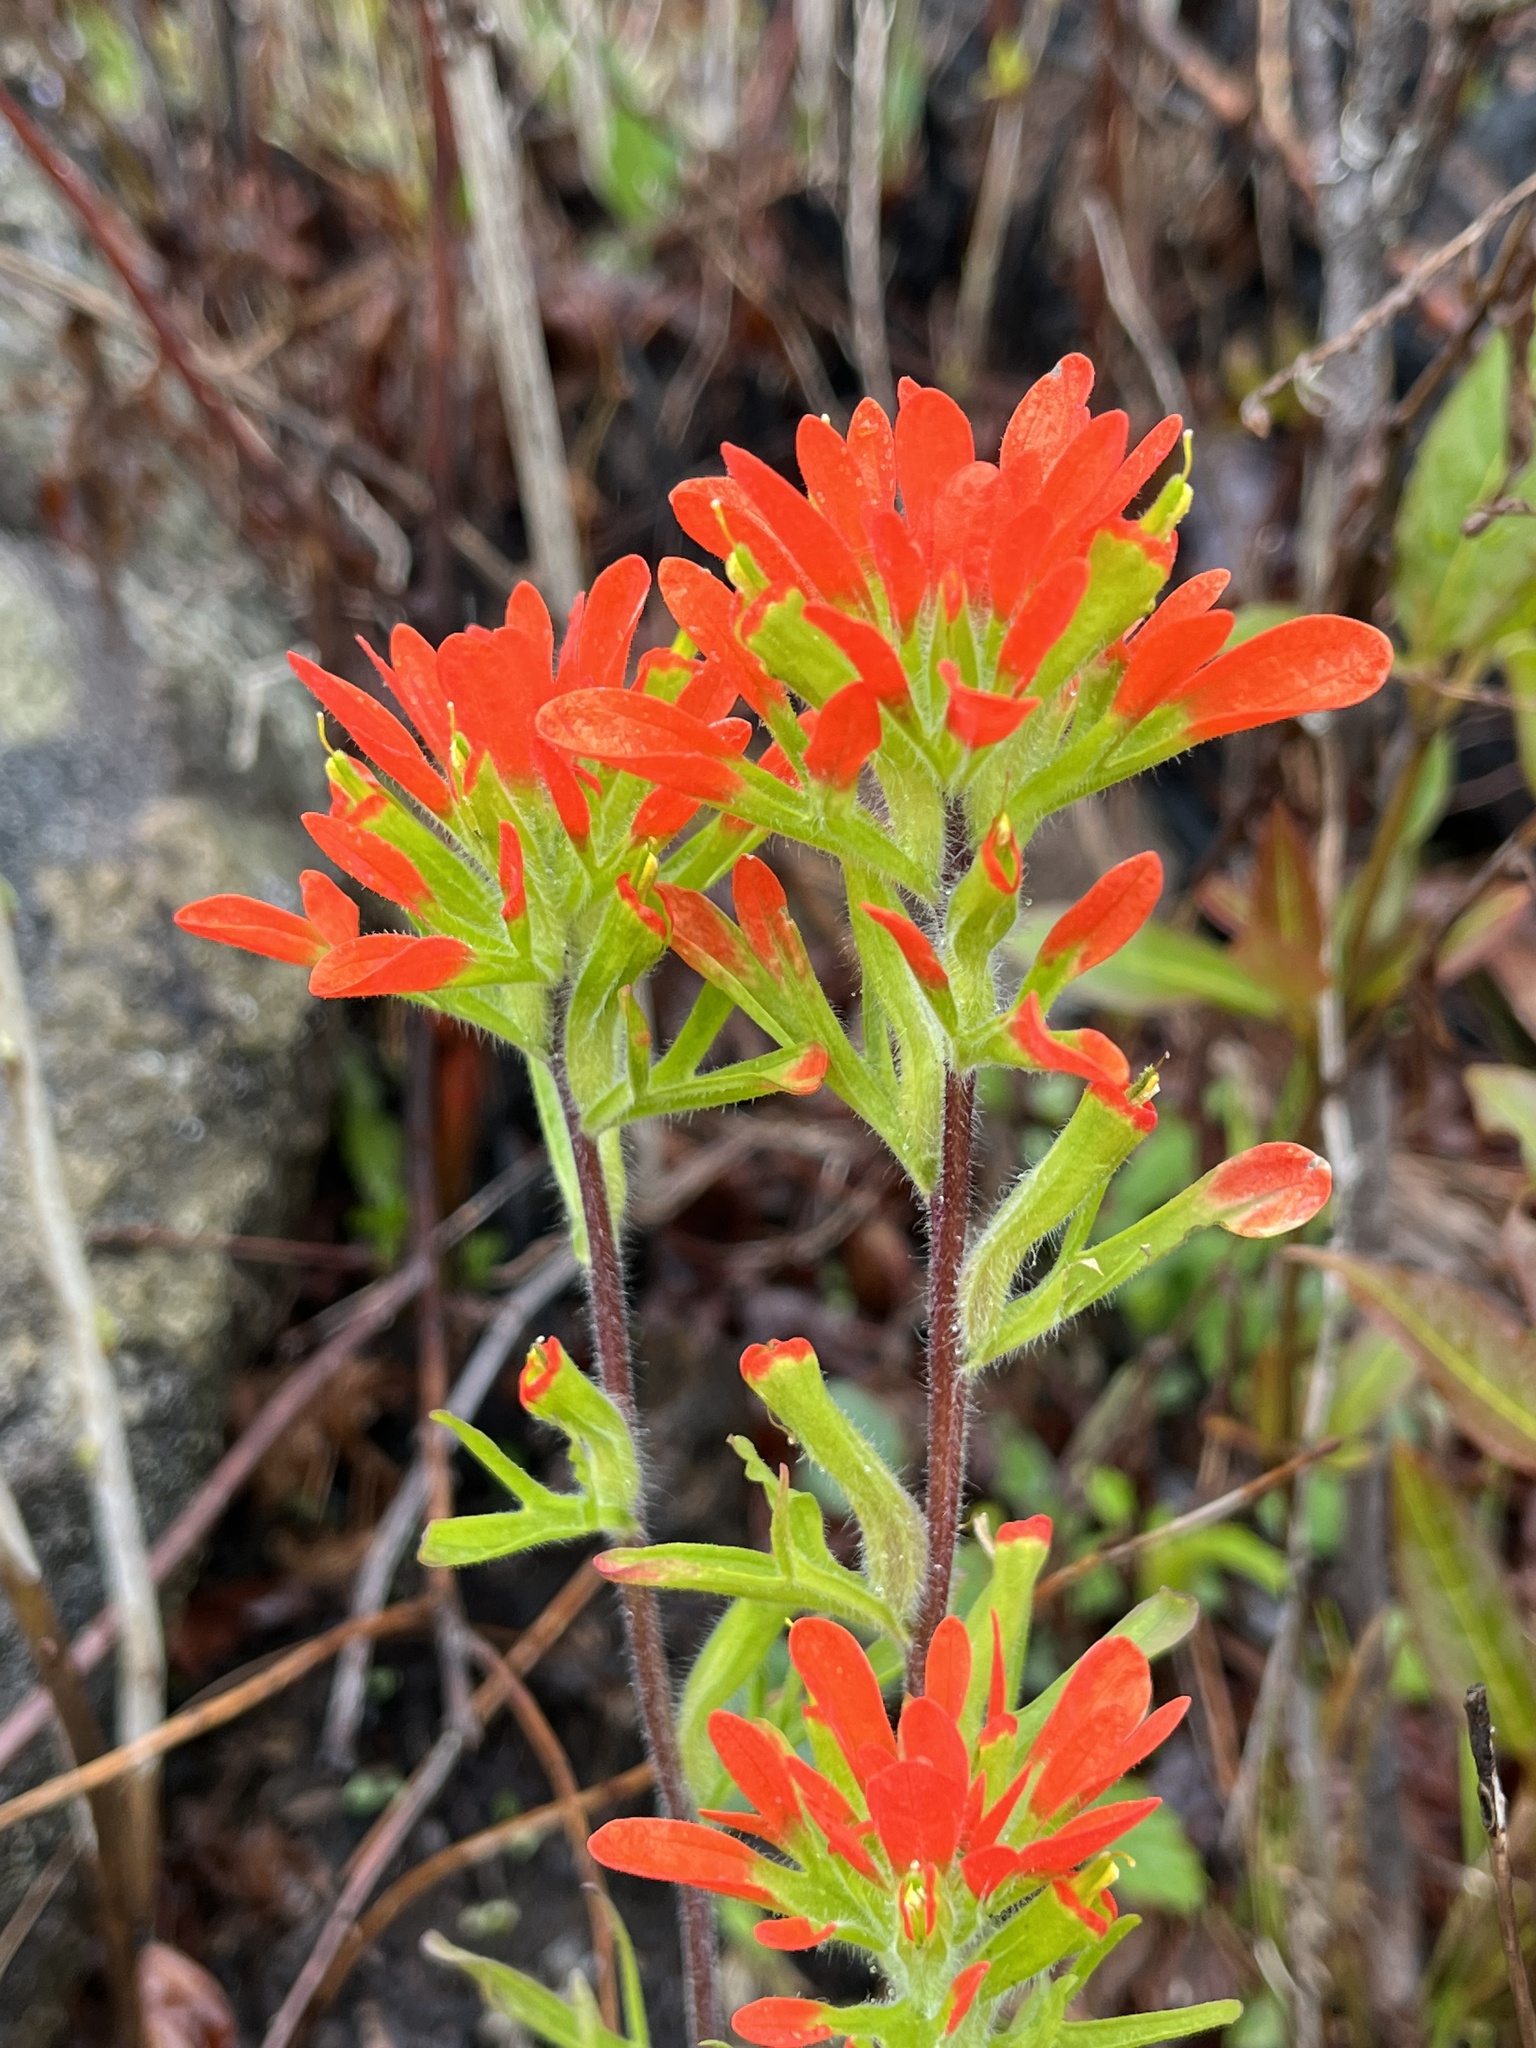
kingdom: Plantae
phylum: Tracheophyta
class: Magnoliopsida
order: Lamiales
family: Orobanchaceae
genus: Castilleja
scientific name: Castilleja coccinea
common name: Scarlet paintbrush
